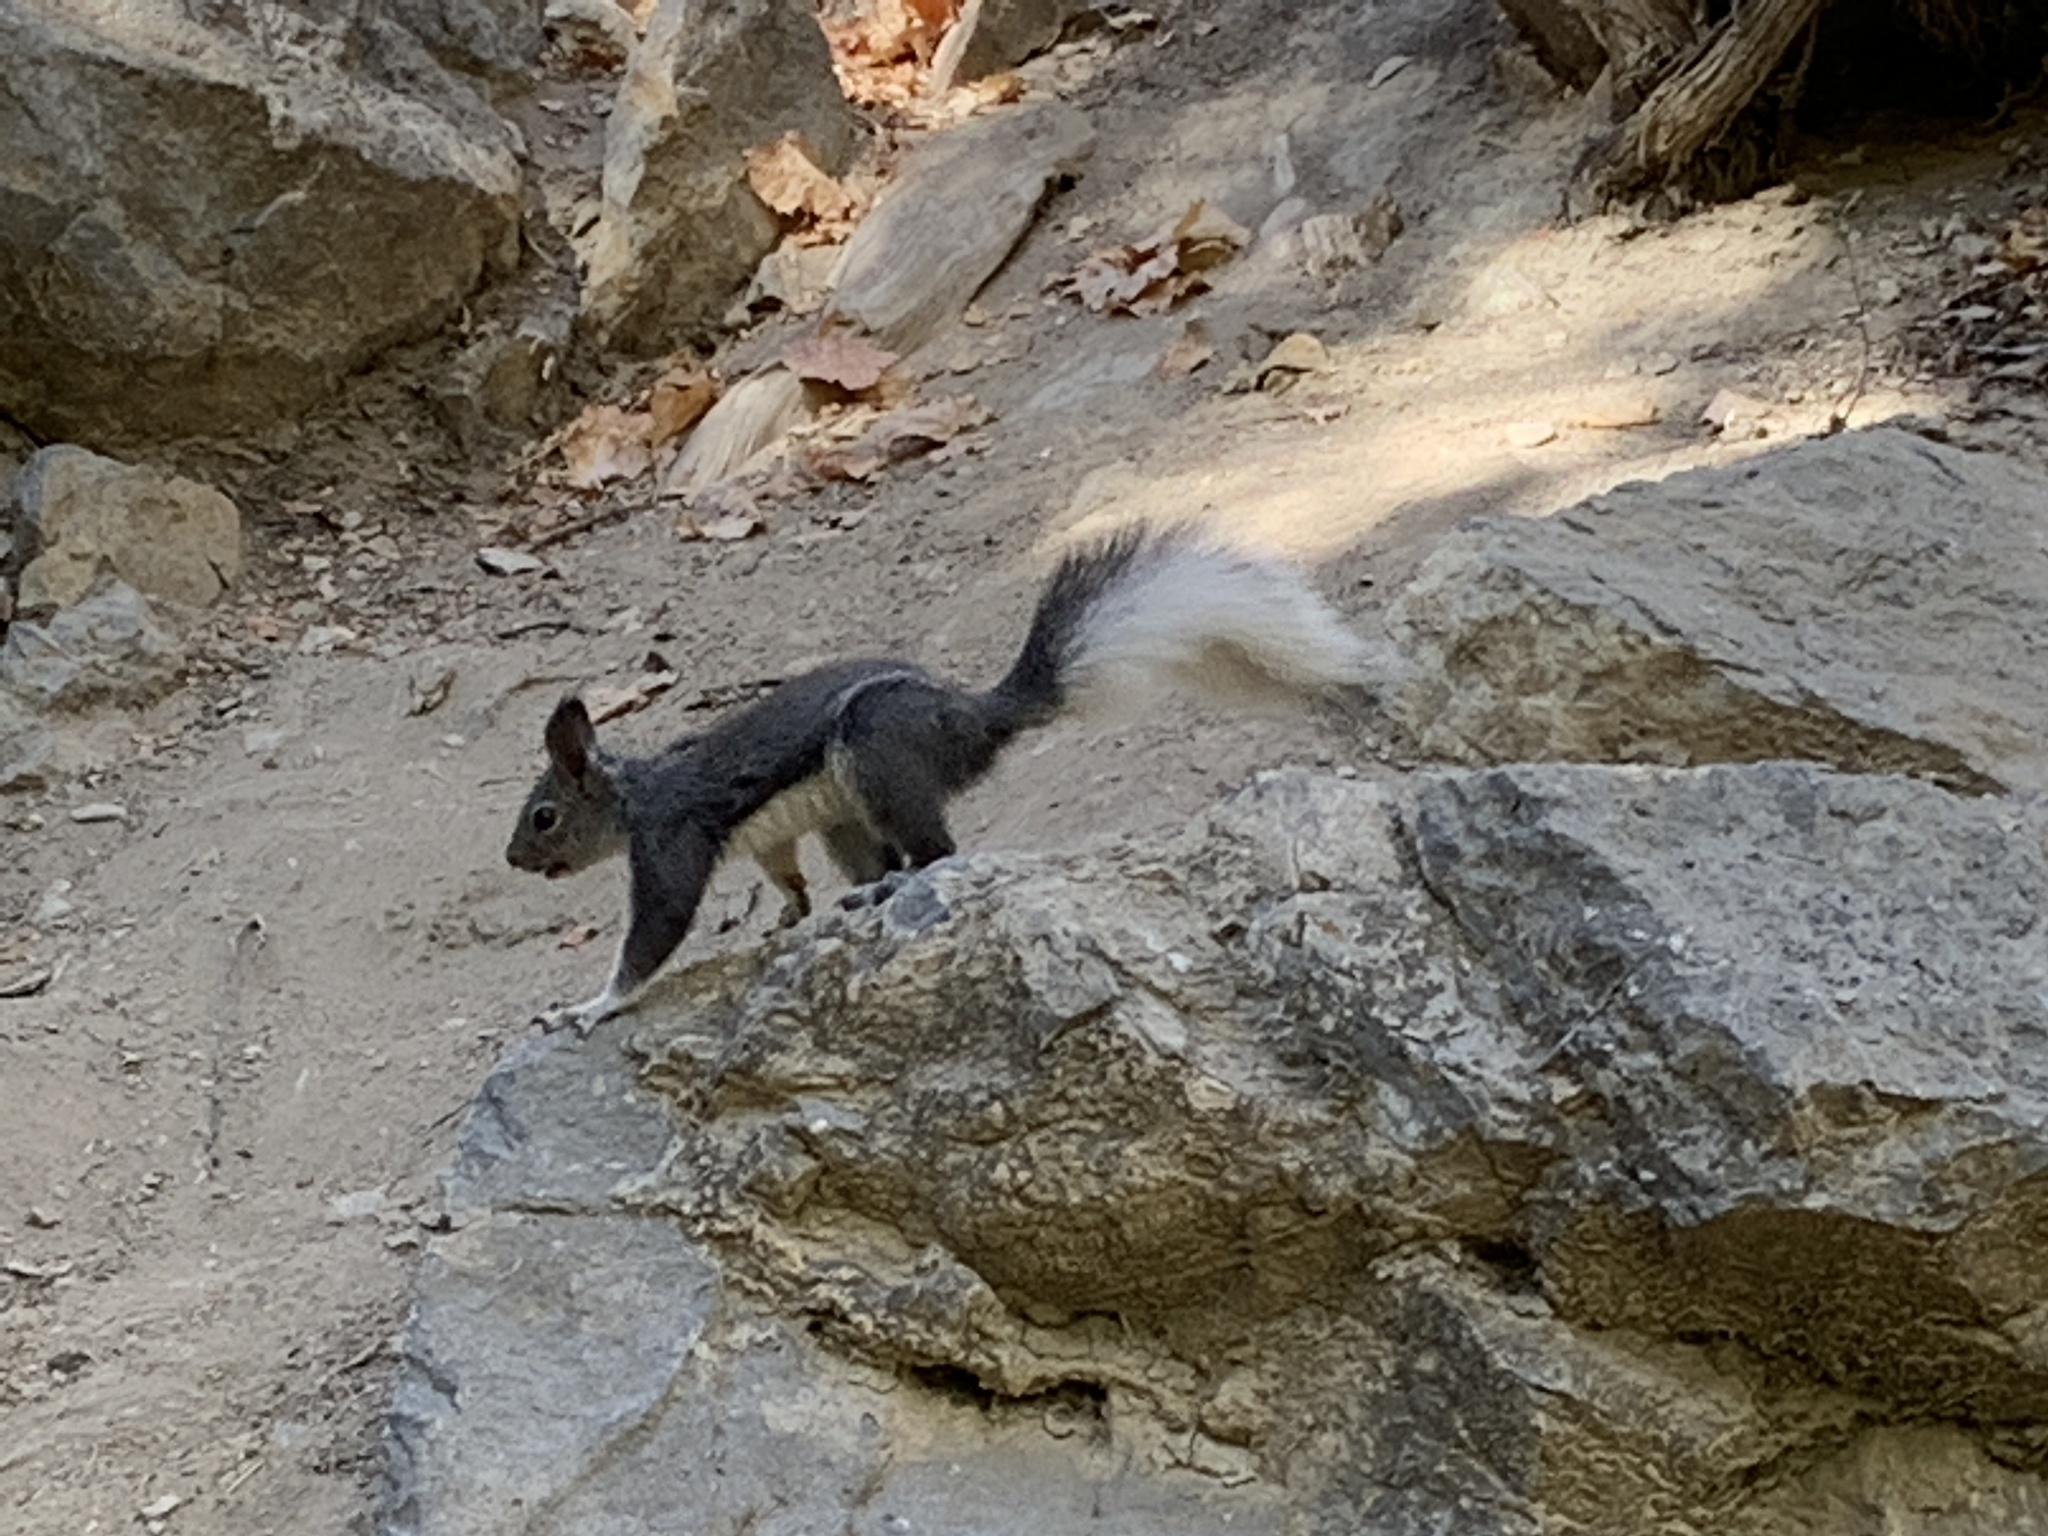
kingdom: Animalia
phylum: Chordata
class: Mammalia
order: Rodentia
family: Sciuridae
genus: Sciurus
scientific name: Sciurus aberti
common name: Abert's squirrel
